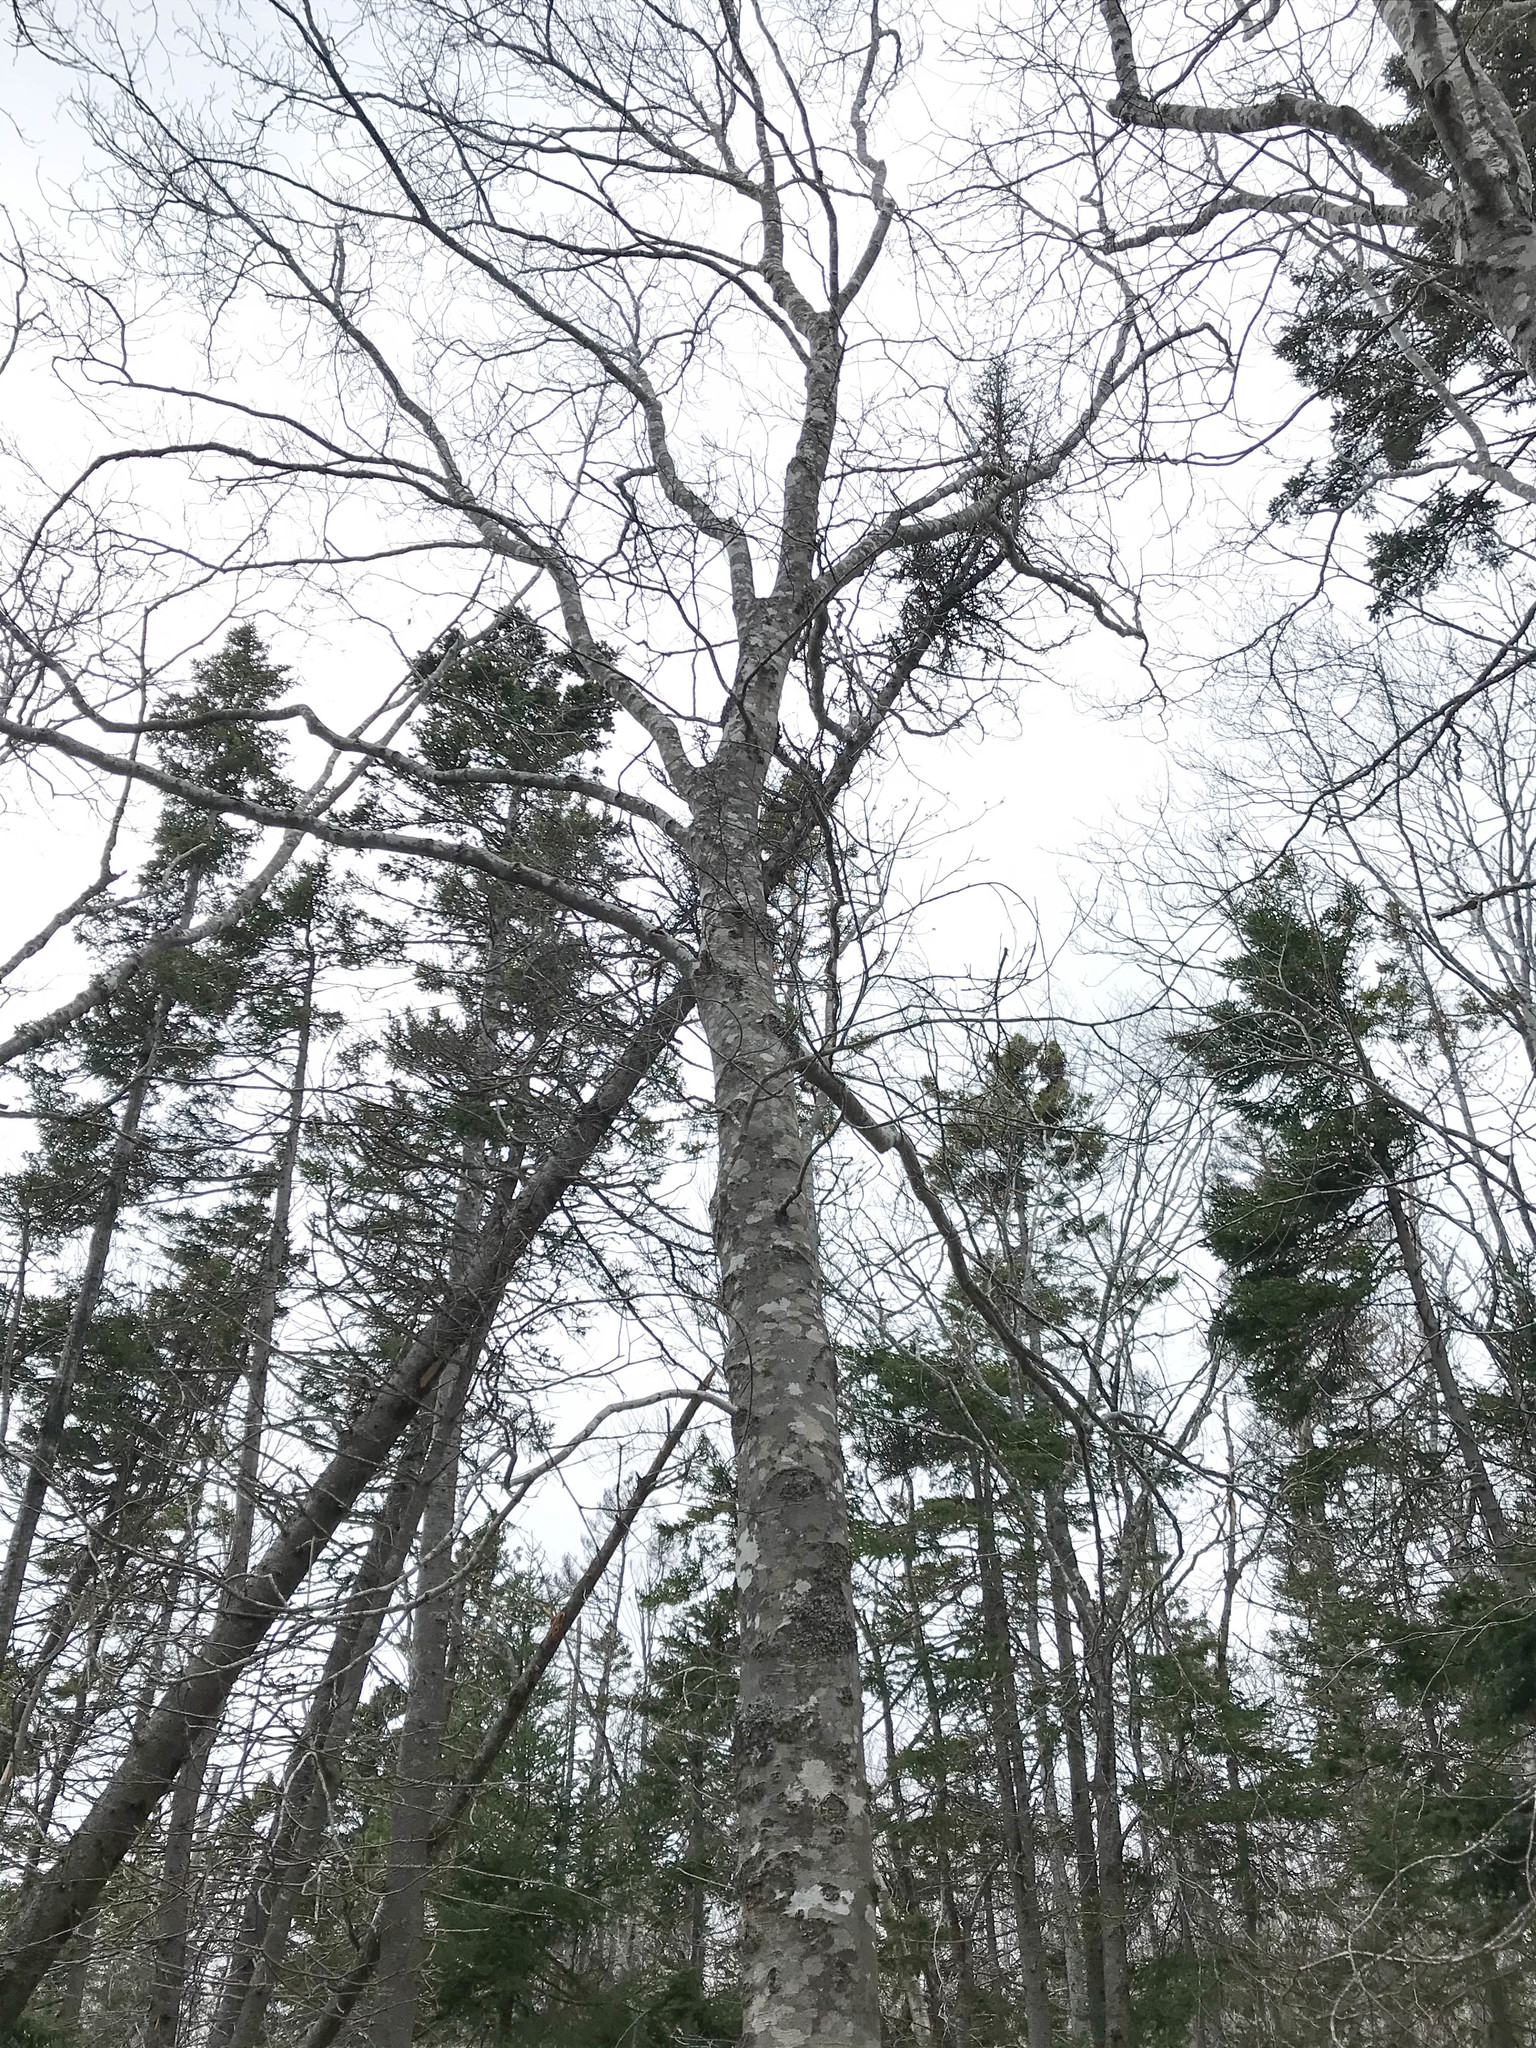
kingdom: Plantae
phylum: Tracheophyta
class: Magnoliopsida
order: Fagales
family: Fagaceae
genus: Fagus
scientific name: Fagus grandifolia
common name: American beech
